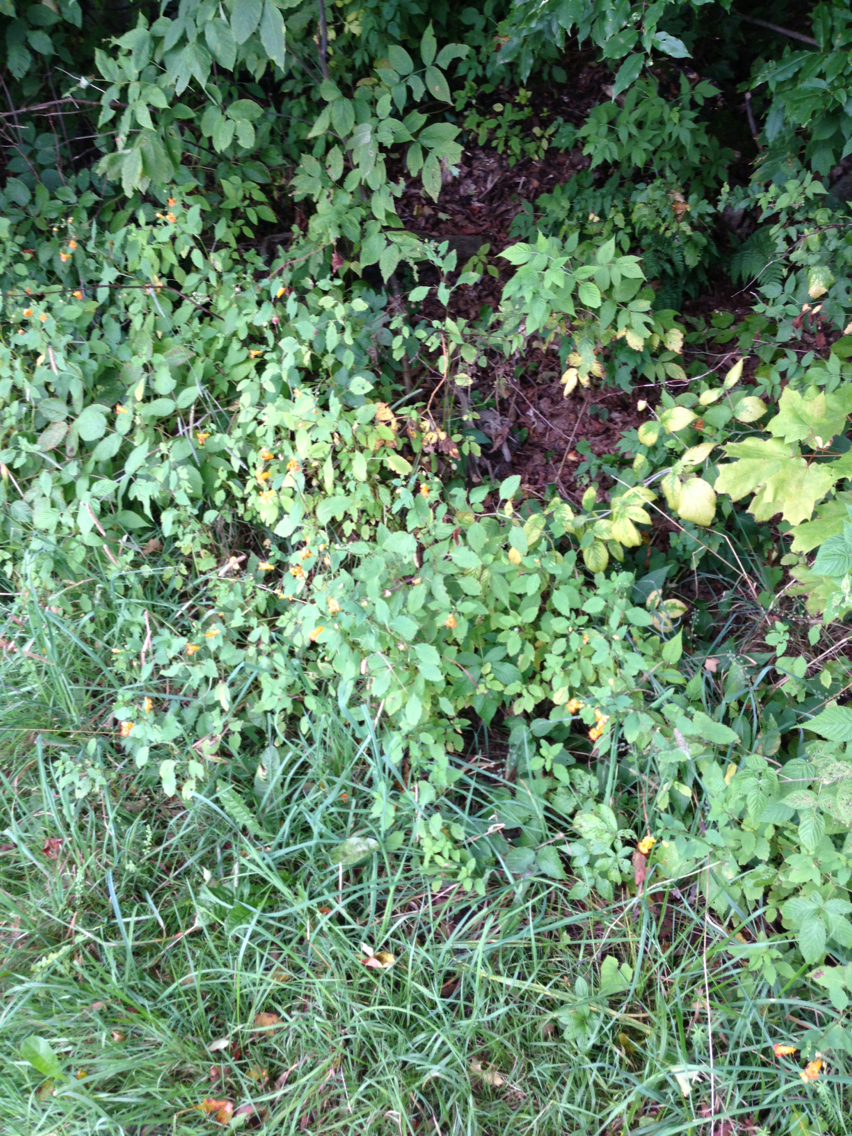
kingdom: Plantae
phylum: Tracheophyta
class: Magnoliopsida
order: Ericales
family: Balsaminaceae
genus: Impatiens
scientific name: Impatiens capensis
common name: Orange balsam
